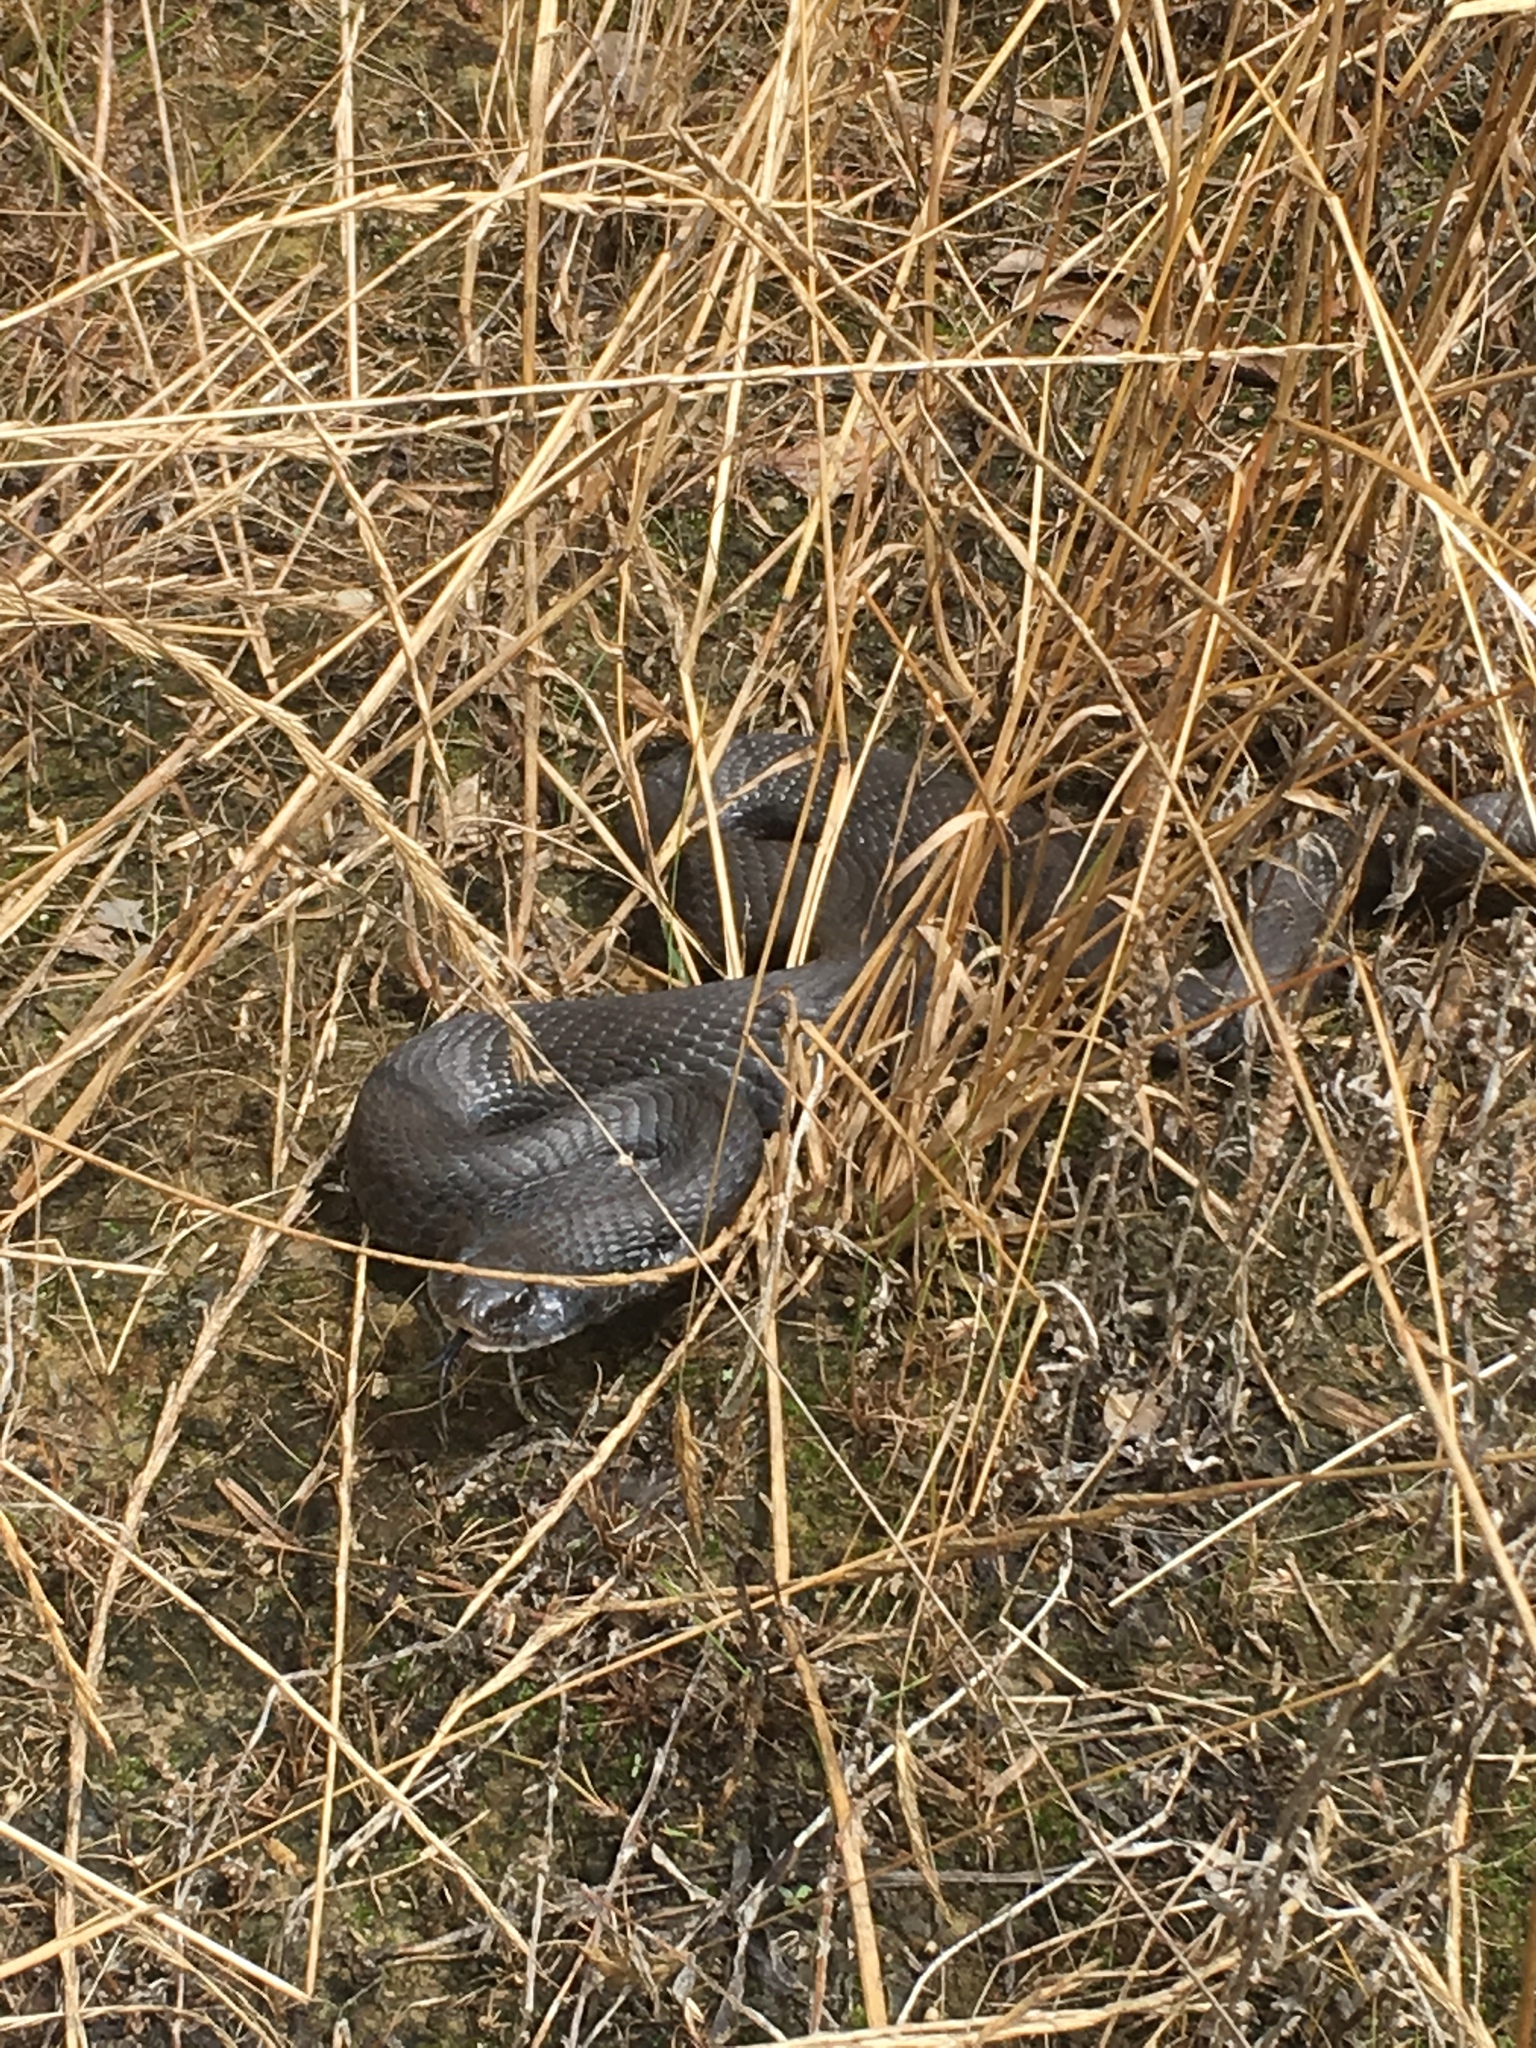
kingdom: Animalia
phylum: Chordata
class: Squamata
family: Colubridae
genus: Heterodon
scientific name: Heterodon platirhinos
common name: Eastern hognose snake
